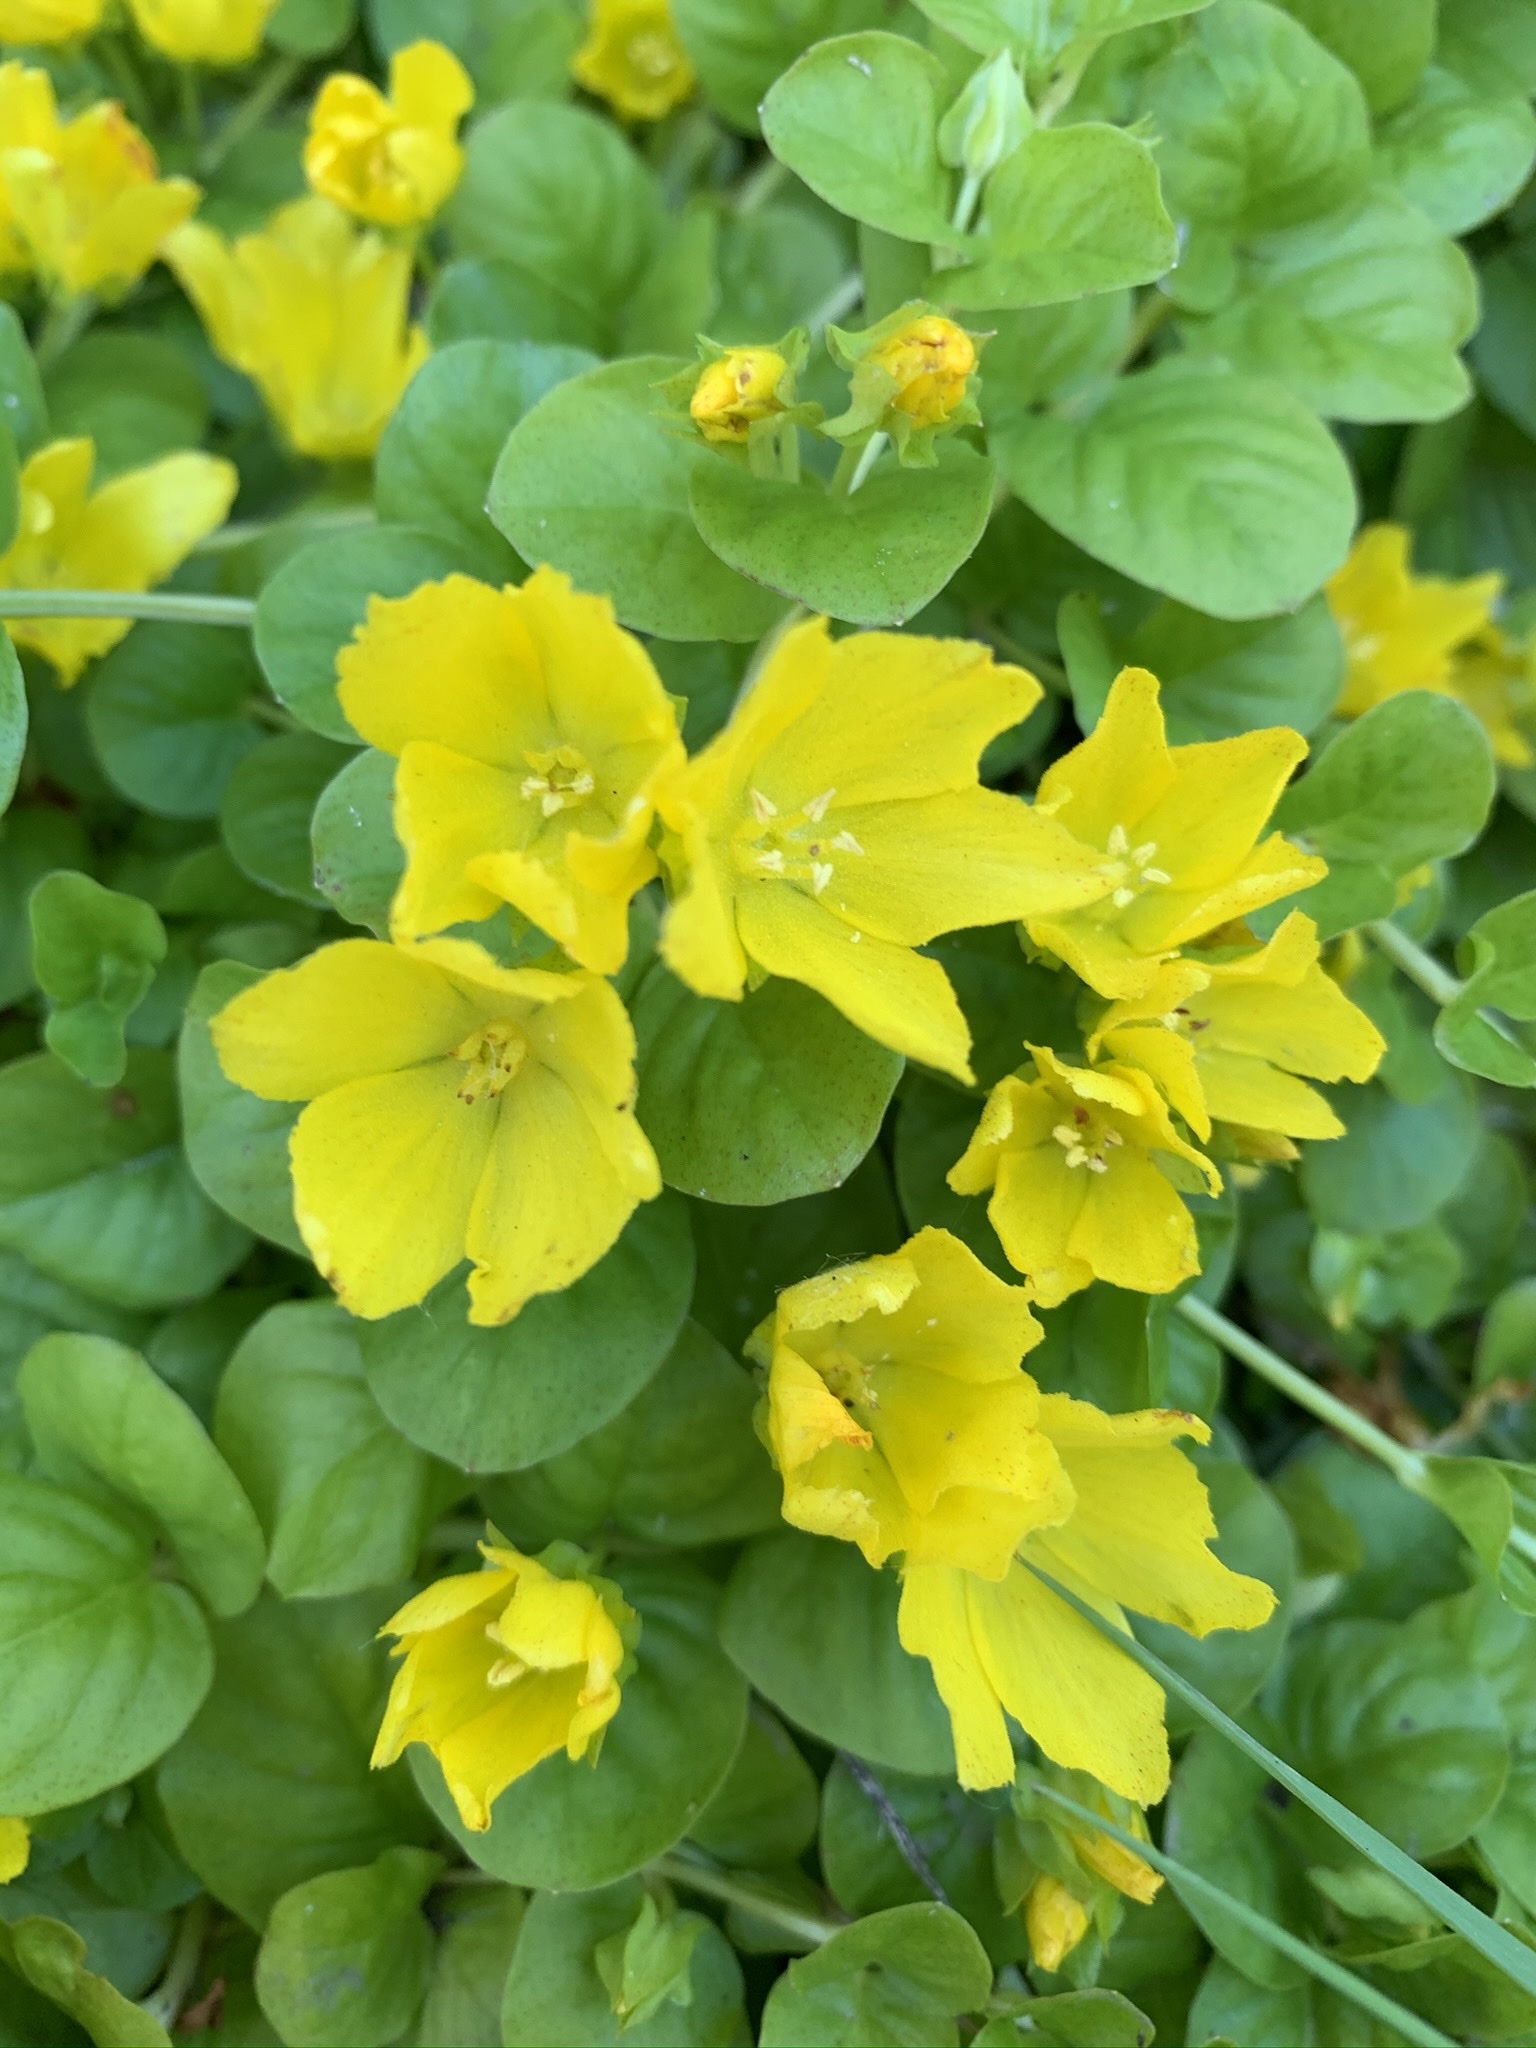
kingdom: Plantae
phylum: Tracheophyta
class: Magnoliopsida
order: Ericales
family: Primulaceae
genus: Lysimachia
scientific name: Lysimachia nummularia
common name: Moneywort
